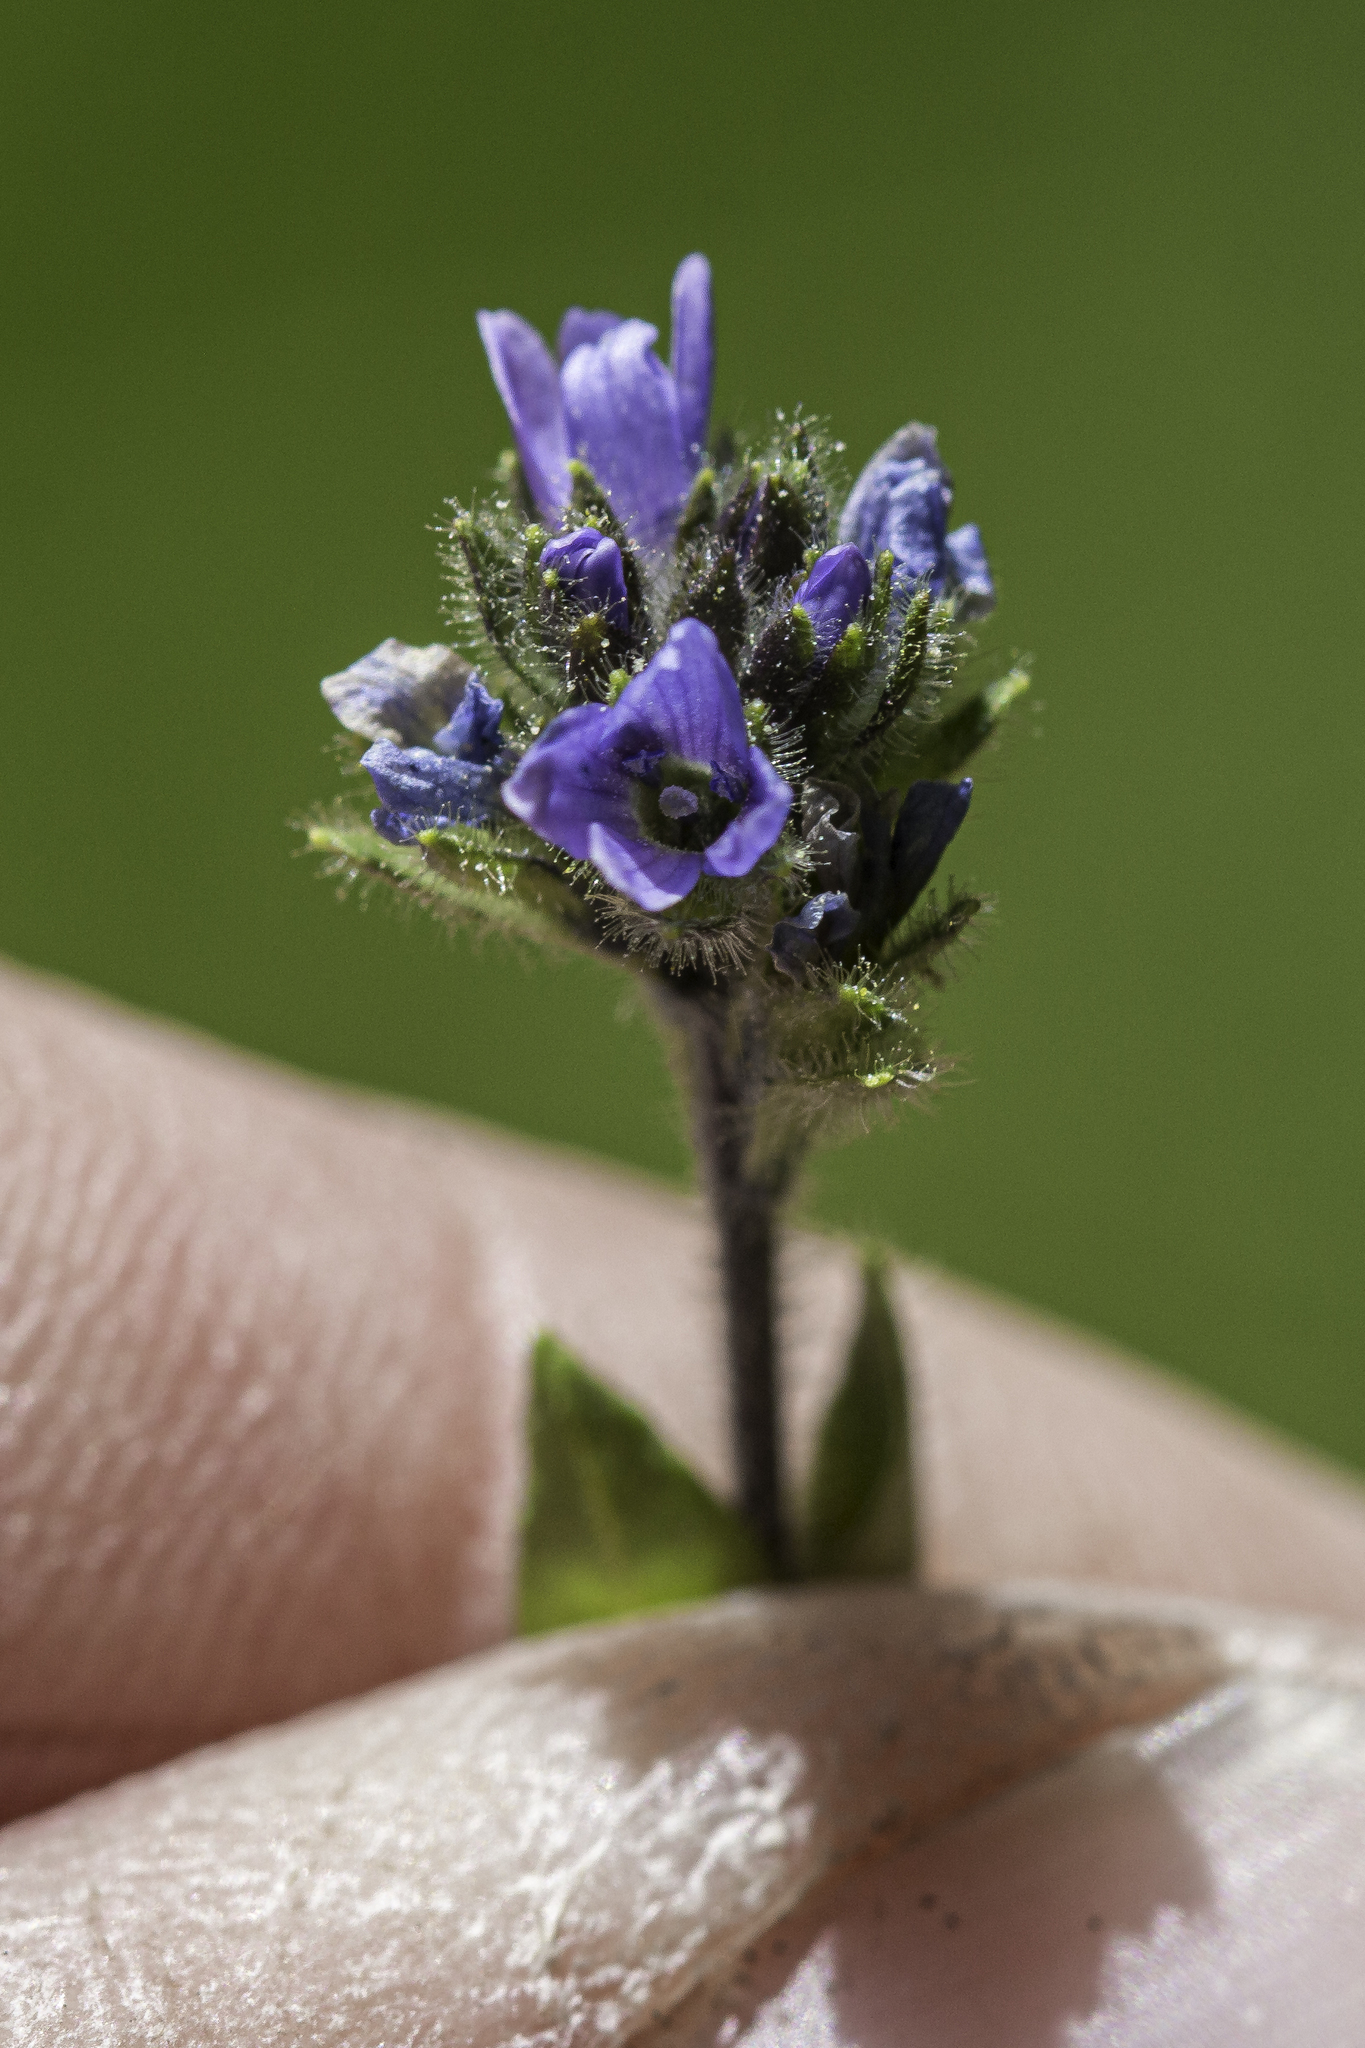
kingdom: Plantae
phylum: Tracheophyta
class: Magnoliopsida
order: Lamiales
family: Plantaginaceae
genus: Veronica
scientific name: Veronica wormskjoldii
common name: American alpine speedwell
